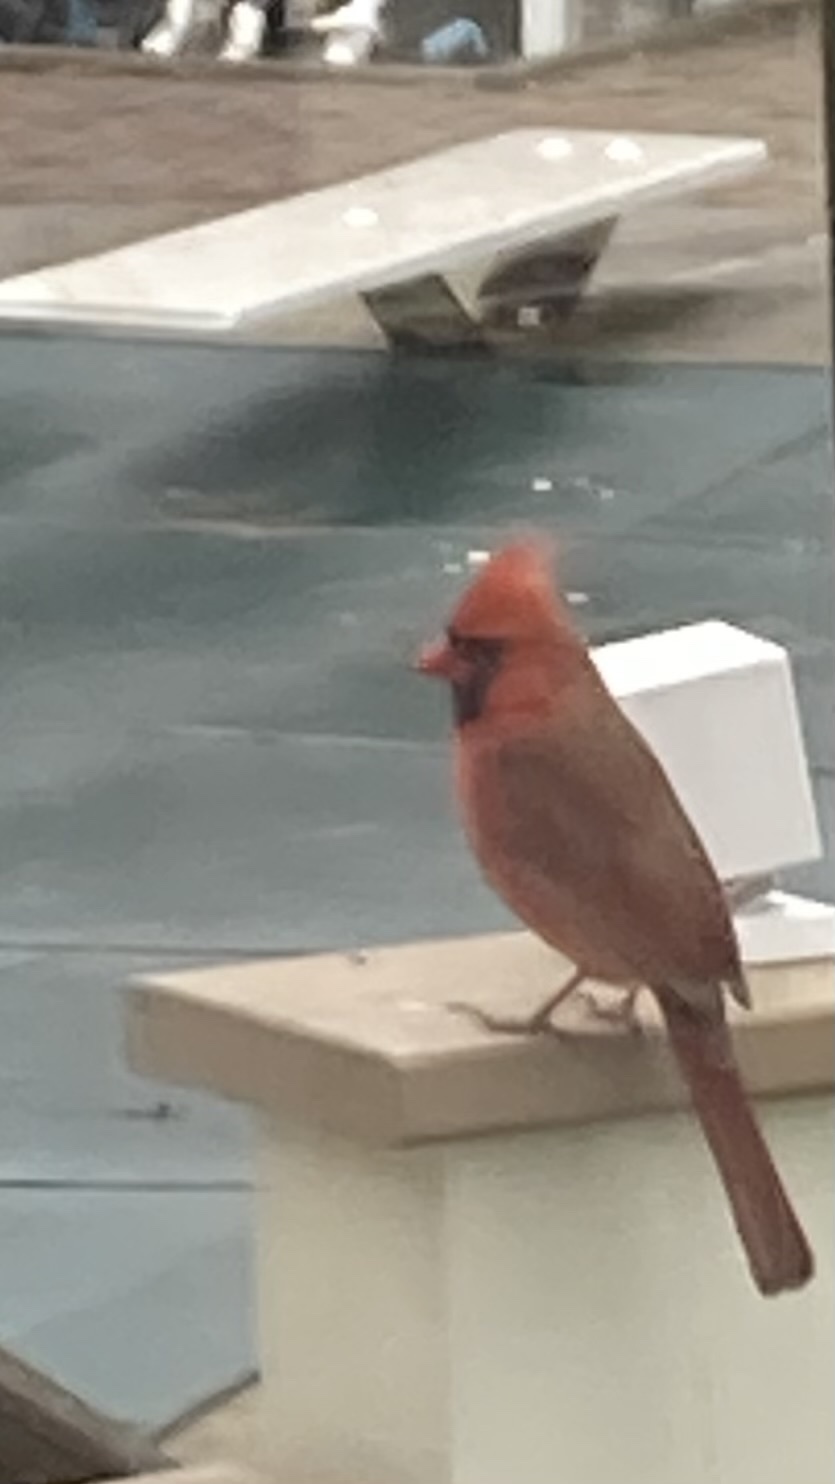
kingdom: Animalia
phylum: Chordata
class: Aves
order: Passeriformes
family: Cardinalidae
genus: Cardinalis
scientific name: Cardinalis cardinalis
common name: Northern cardinal
